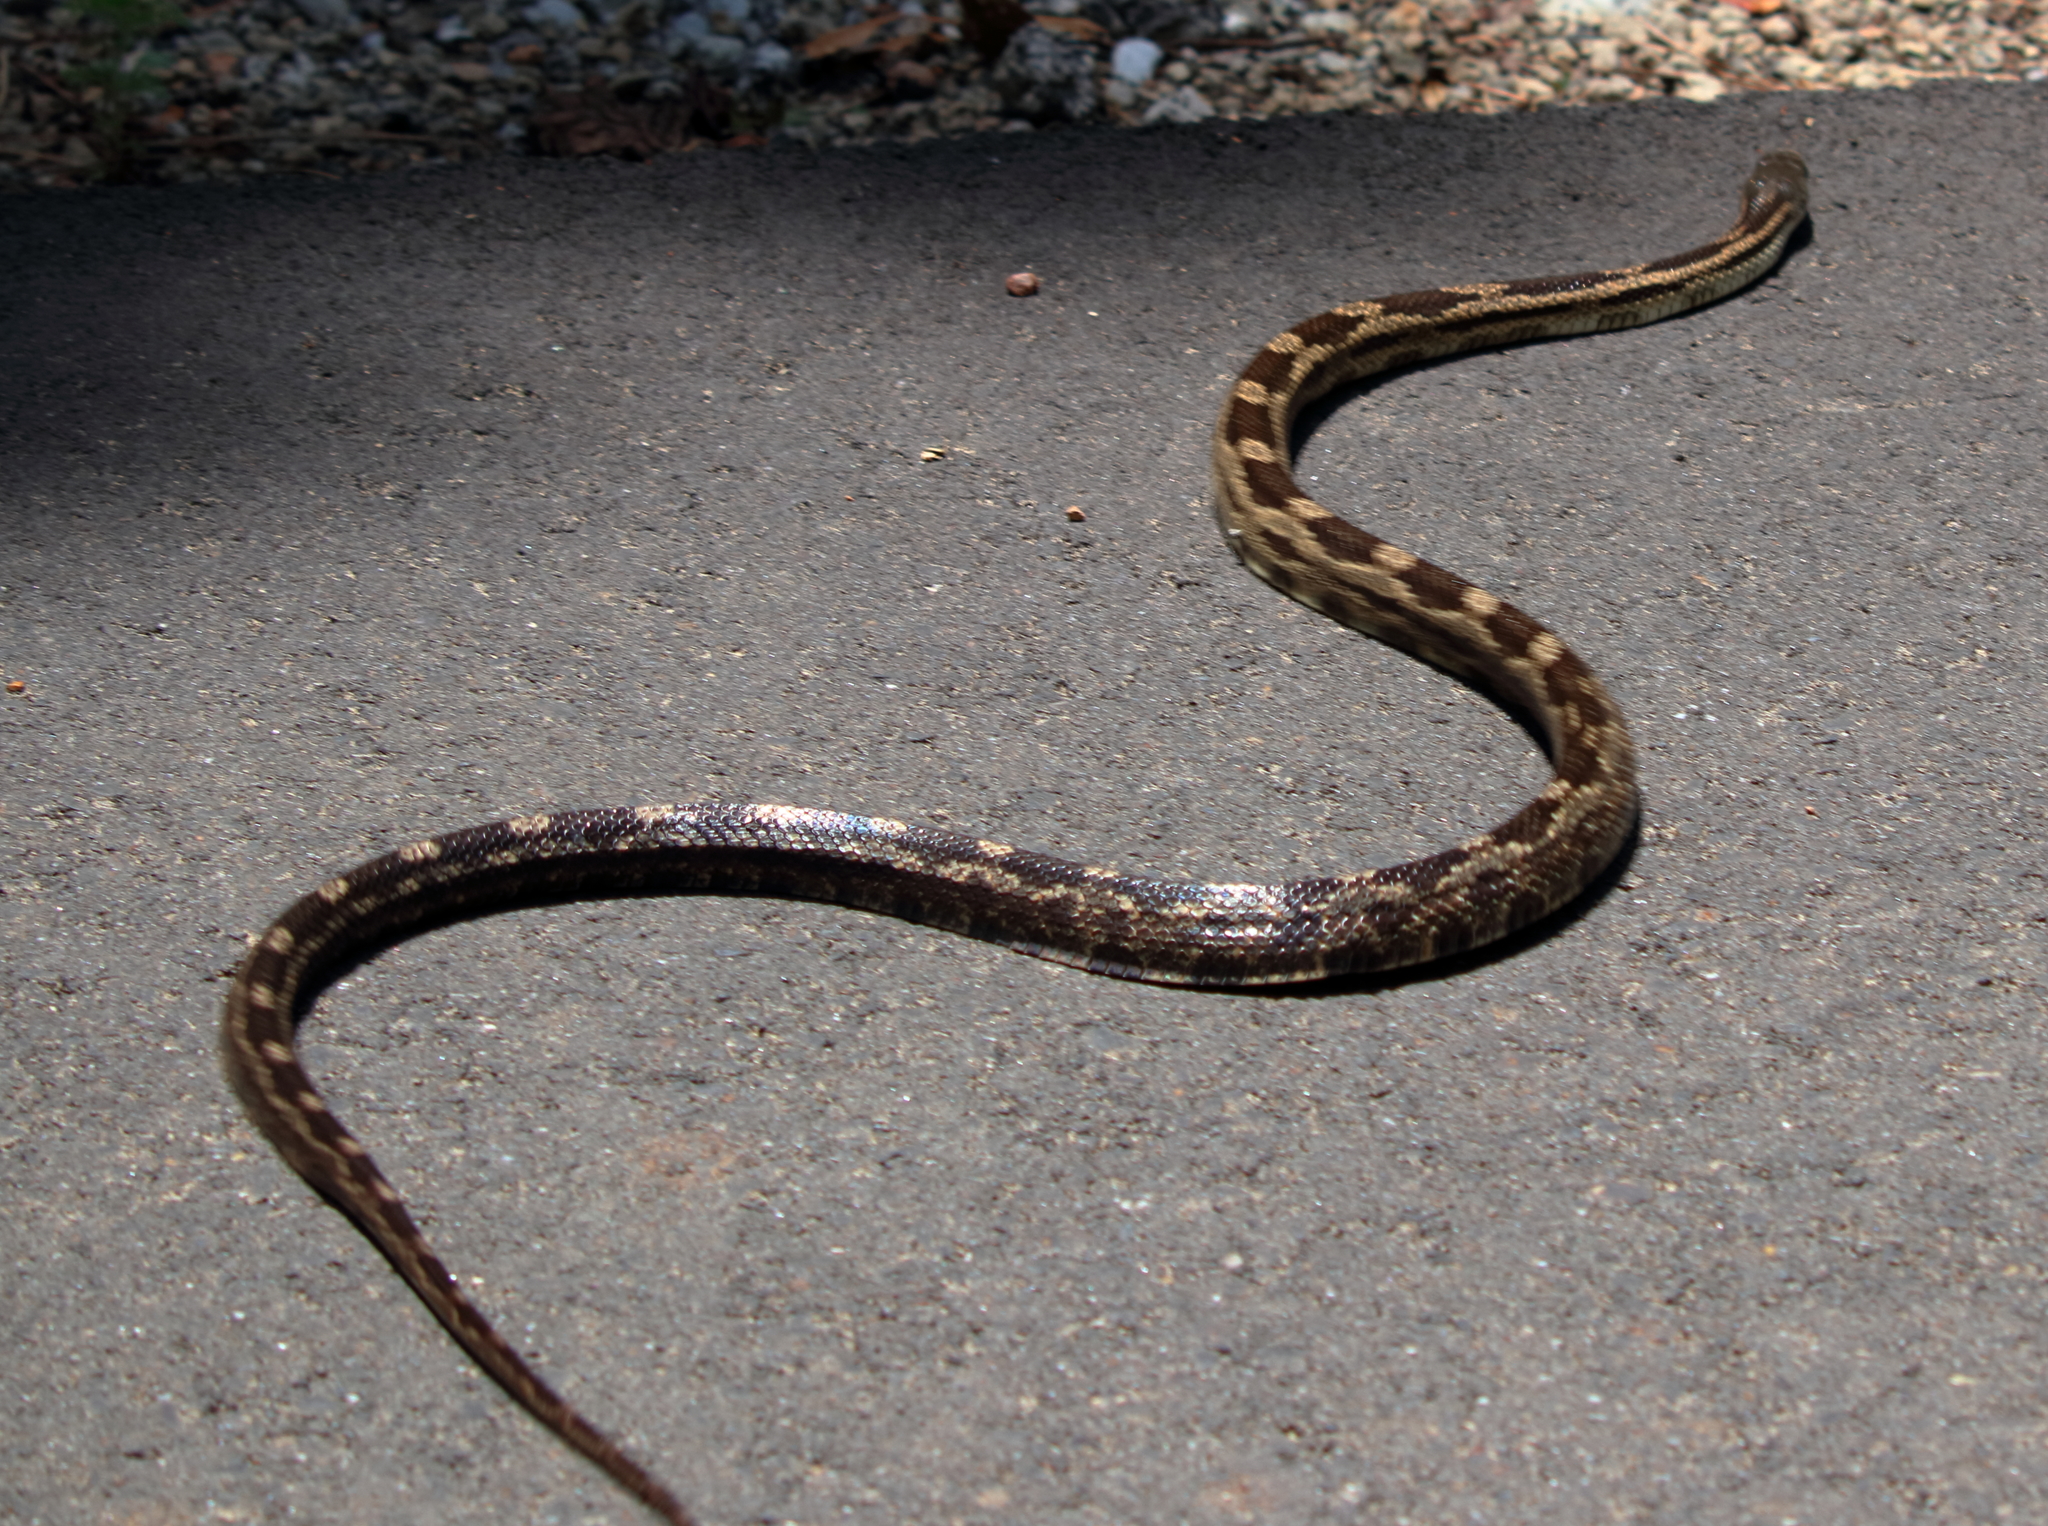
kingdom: Animalia
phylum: Chordata
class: Squamata
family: Colubridae
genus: Pantherophis
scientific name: Pantherophis spiloides
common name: Gray rat snake
